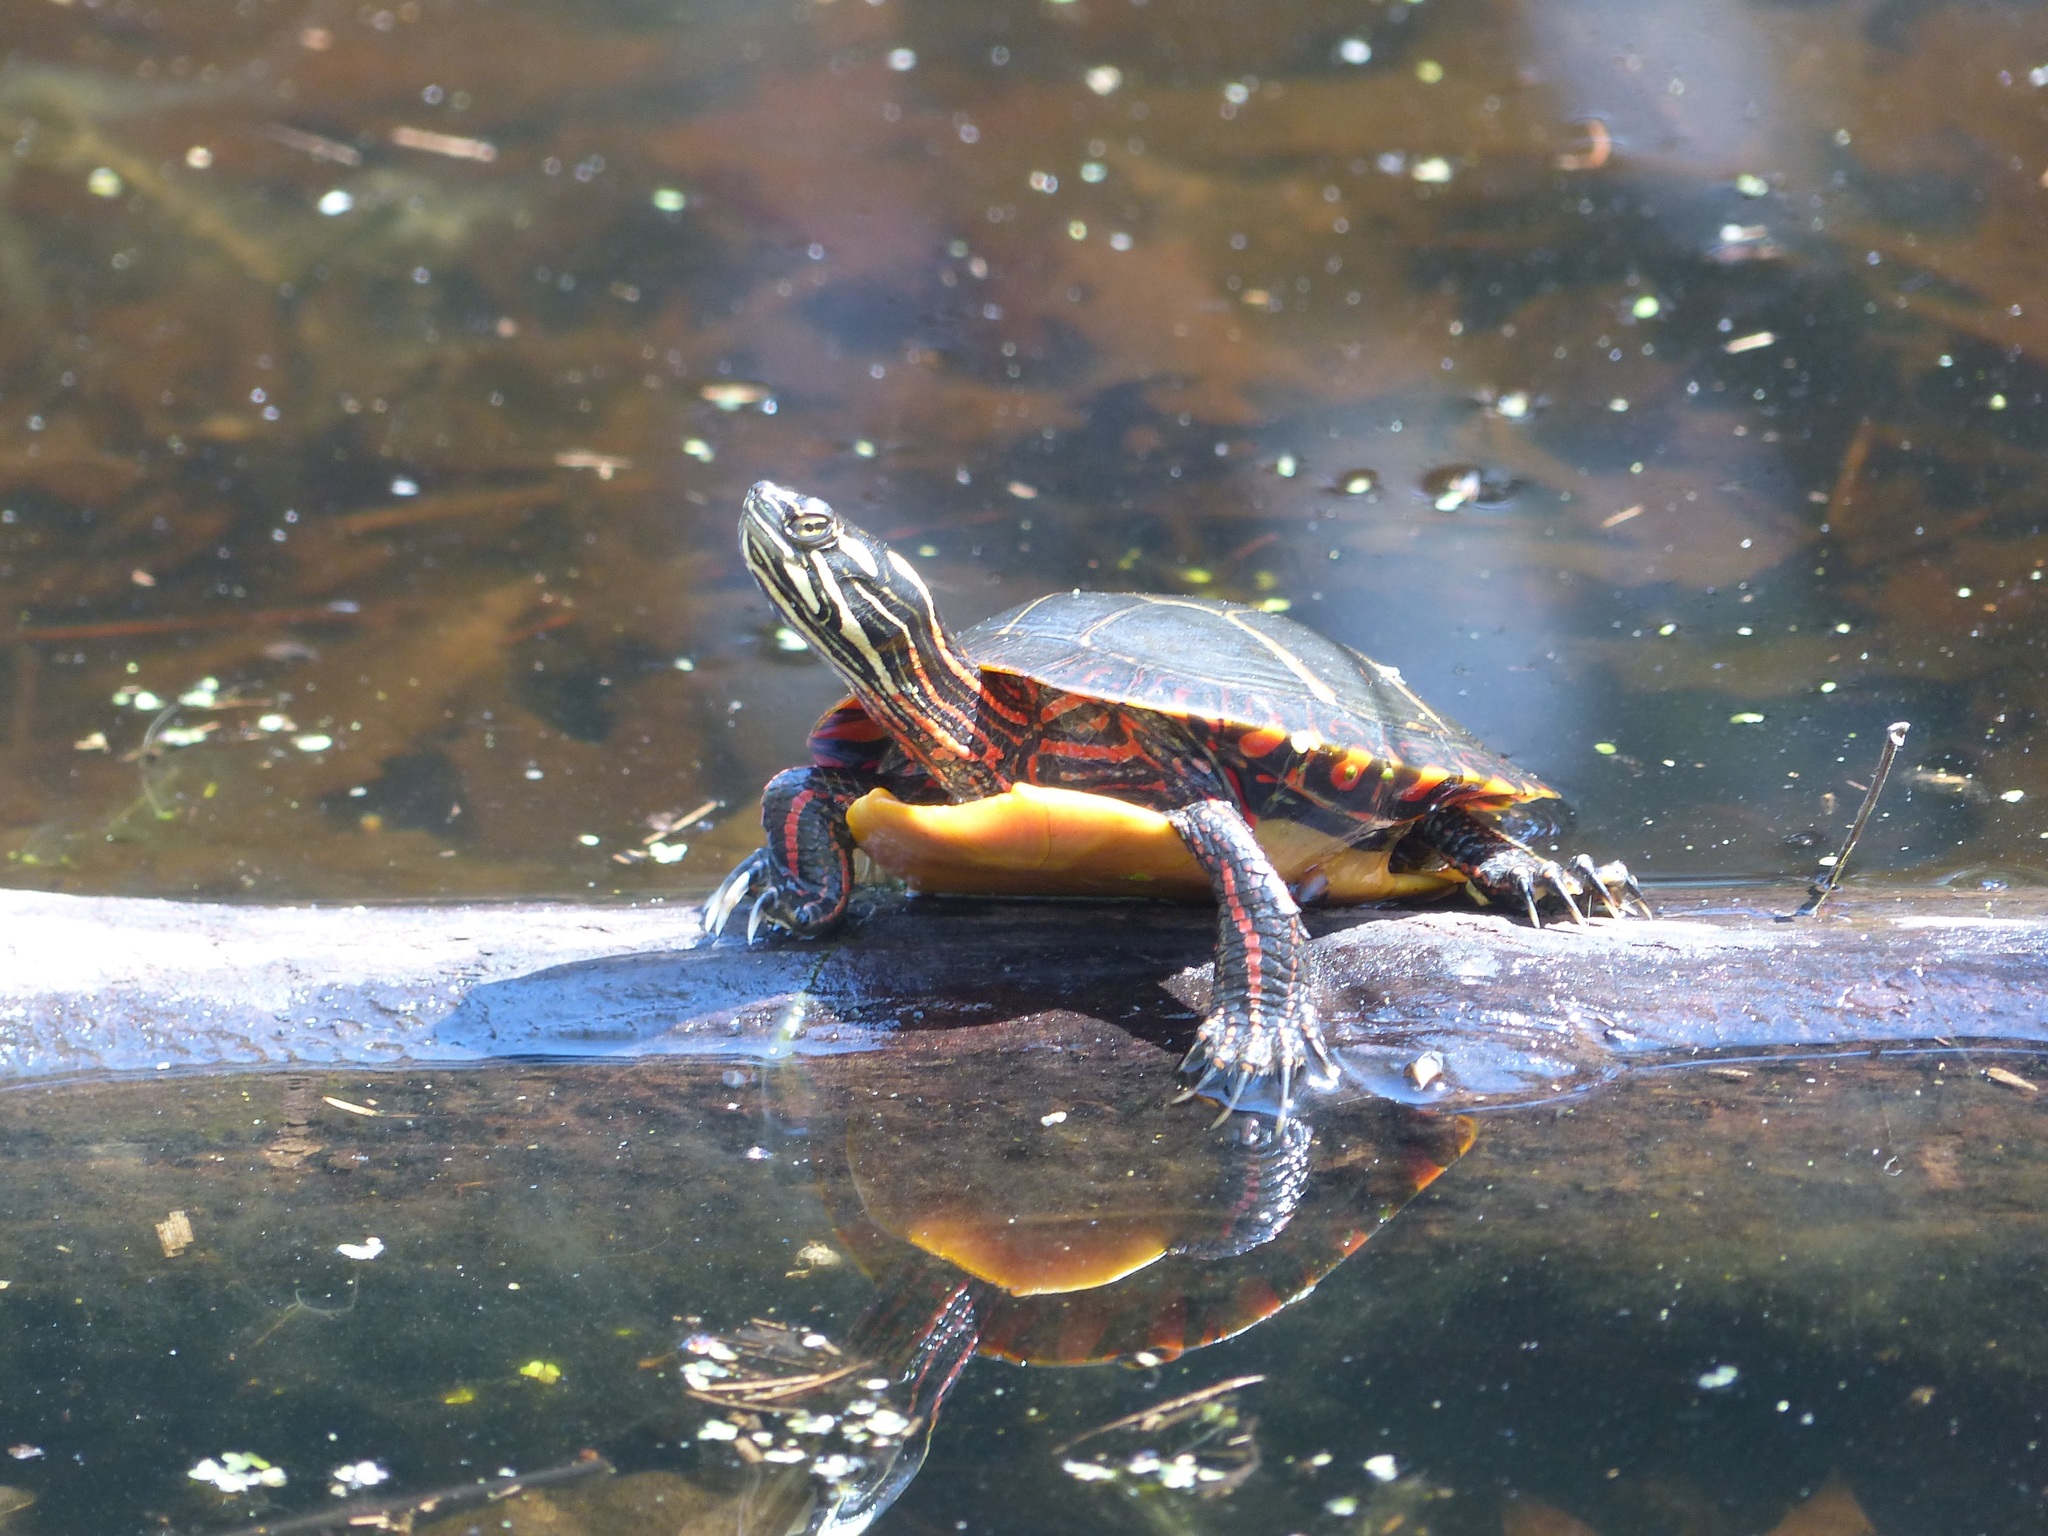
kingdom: Animalia
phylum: Chordata
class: Testudines
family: Emydidae
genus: Chrysemys
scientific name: Chrysemys picta
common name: Painted turtle
